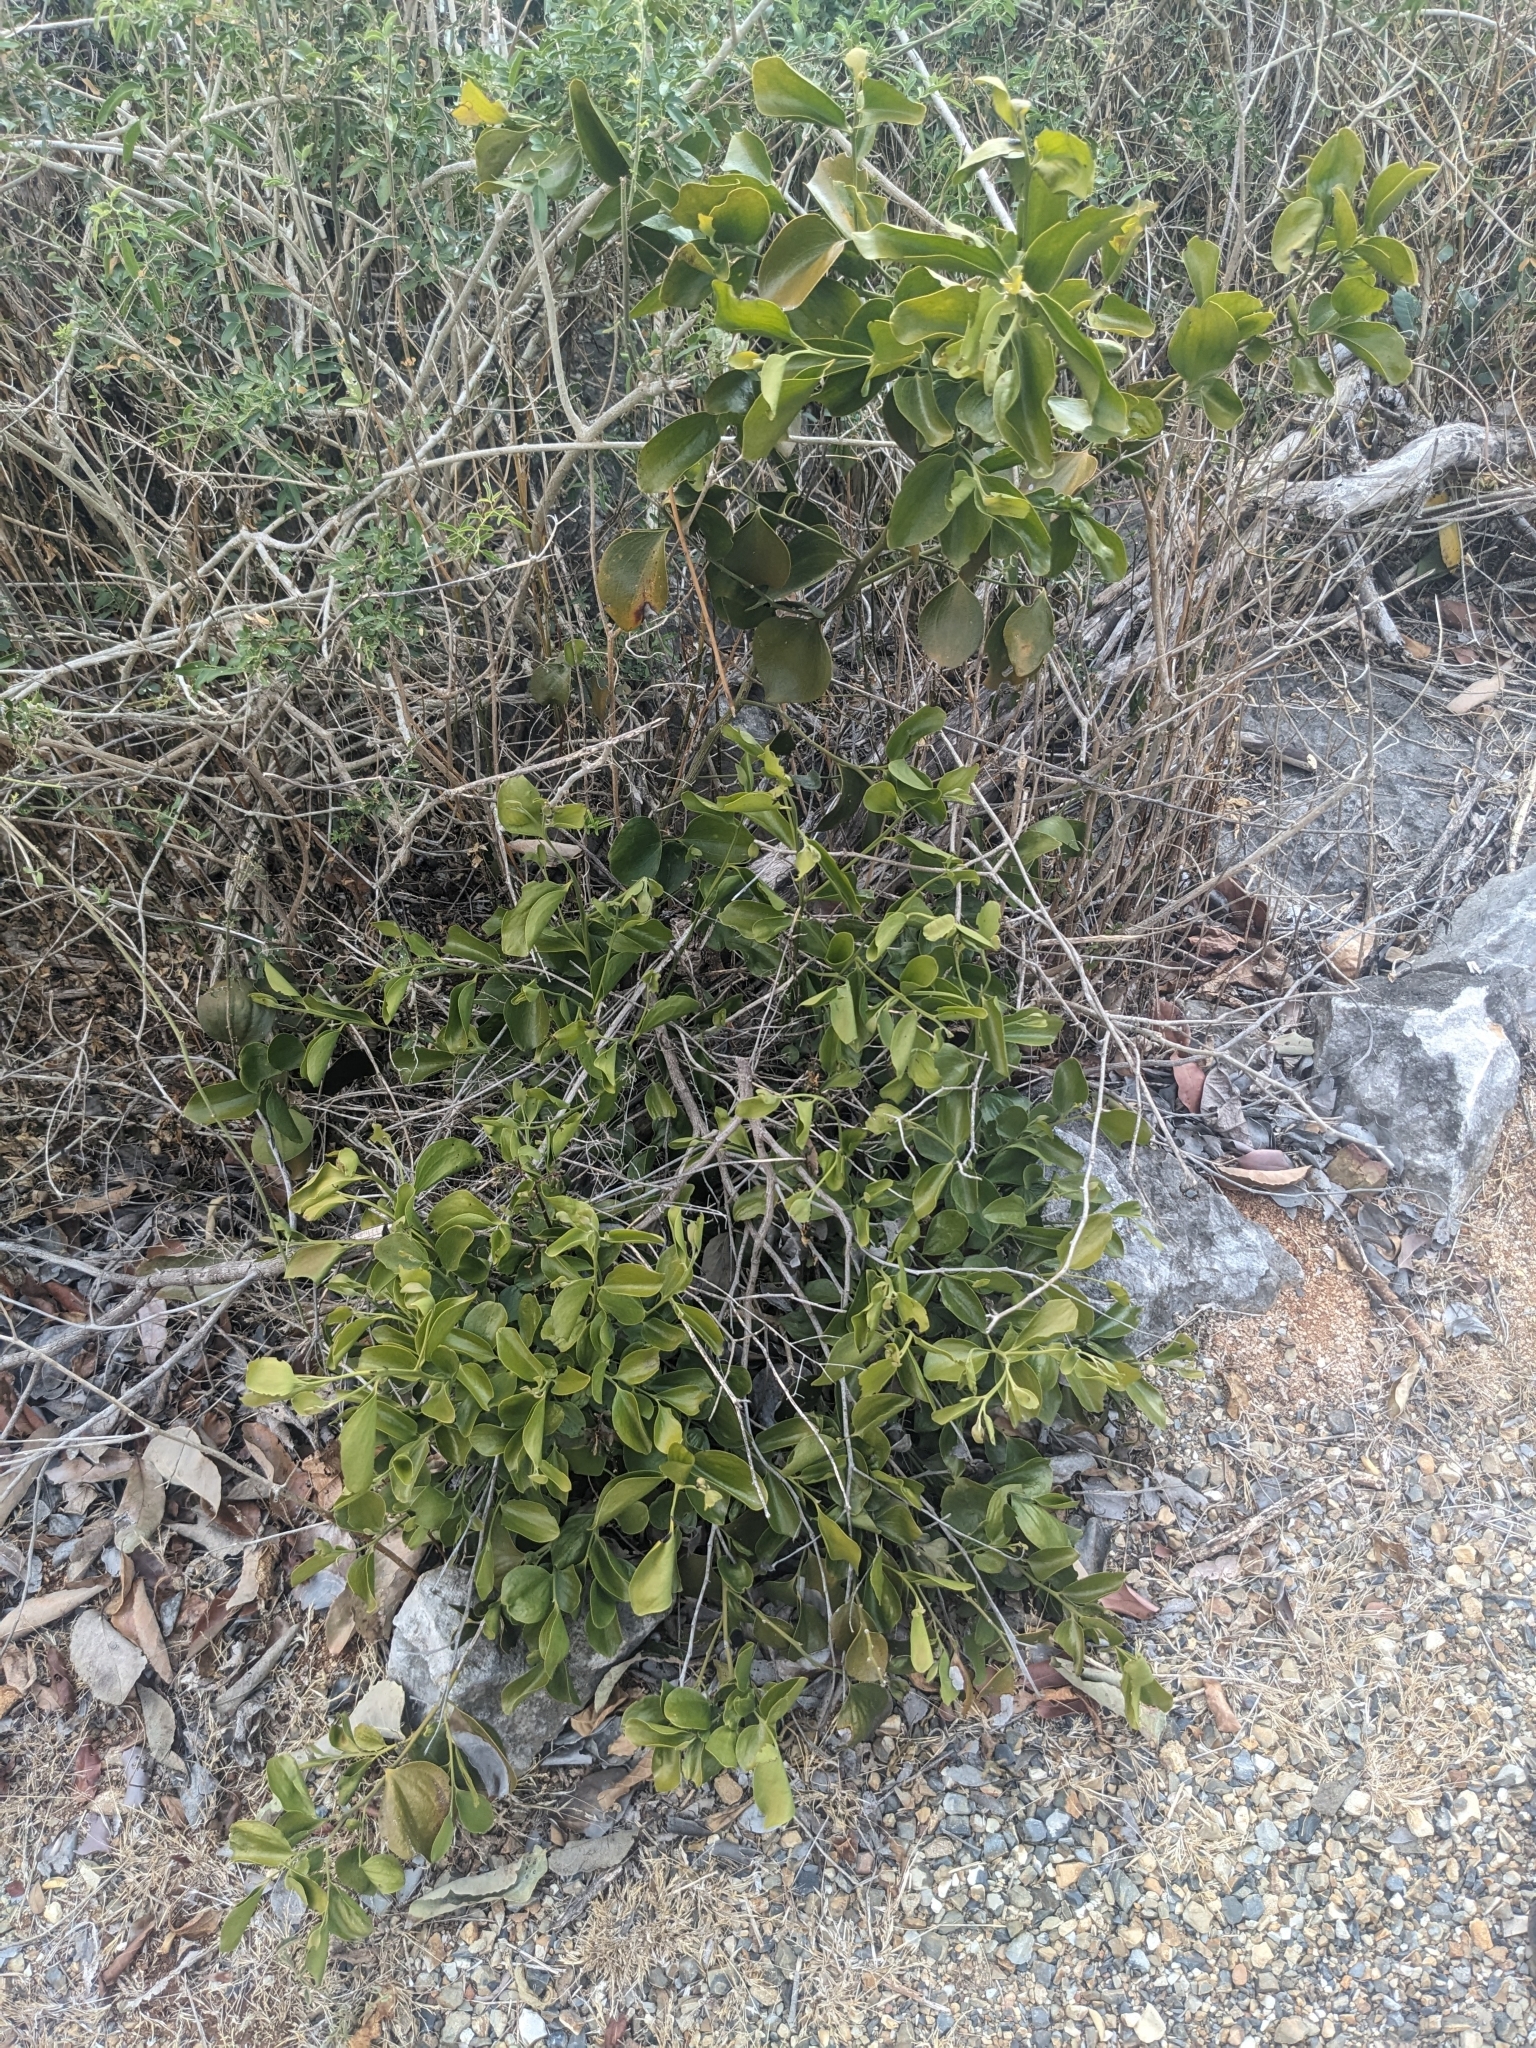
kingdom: Plantae
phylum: Tracheophyta
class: Magnoliopsida
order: Santalales
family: Santalaceae
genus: Exocarpos
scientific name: Exocarpos latifolius
